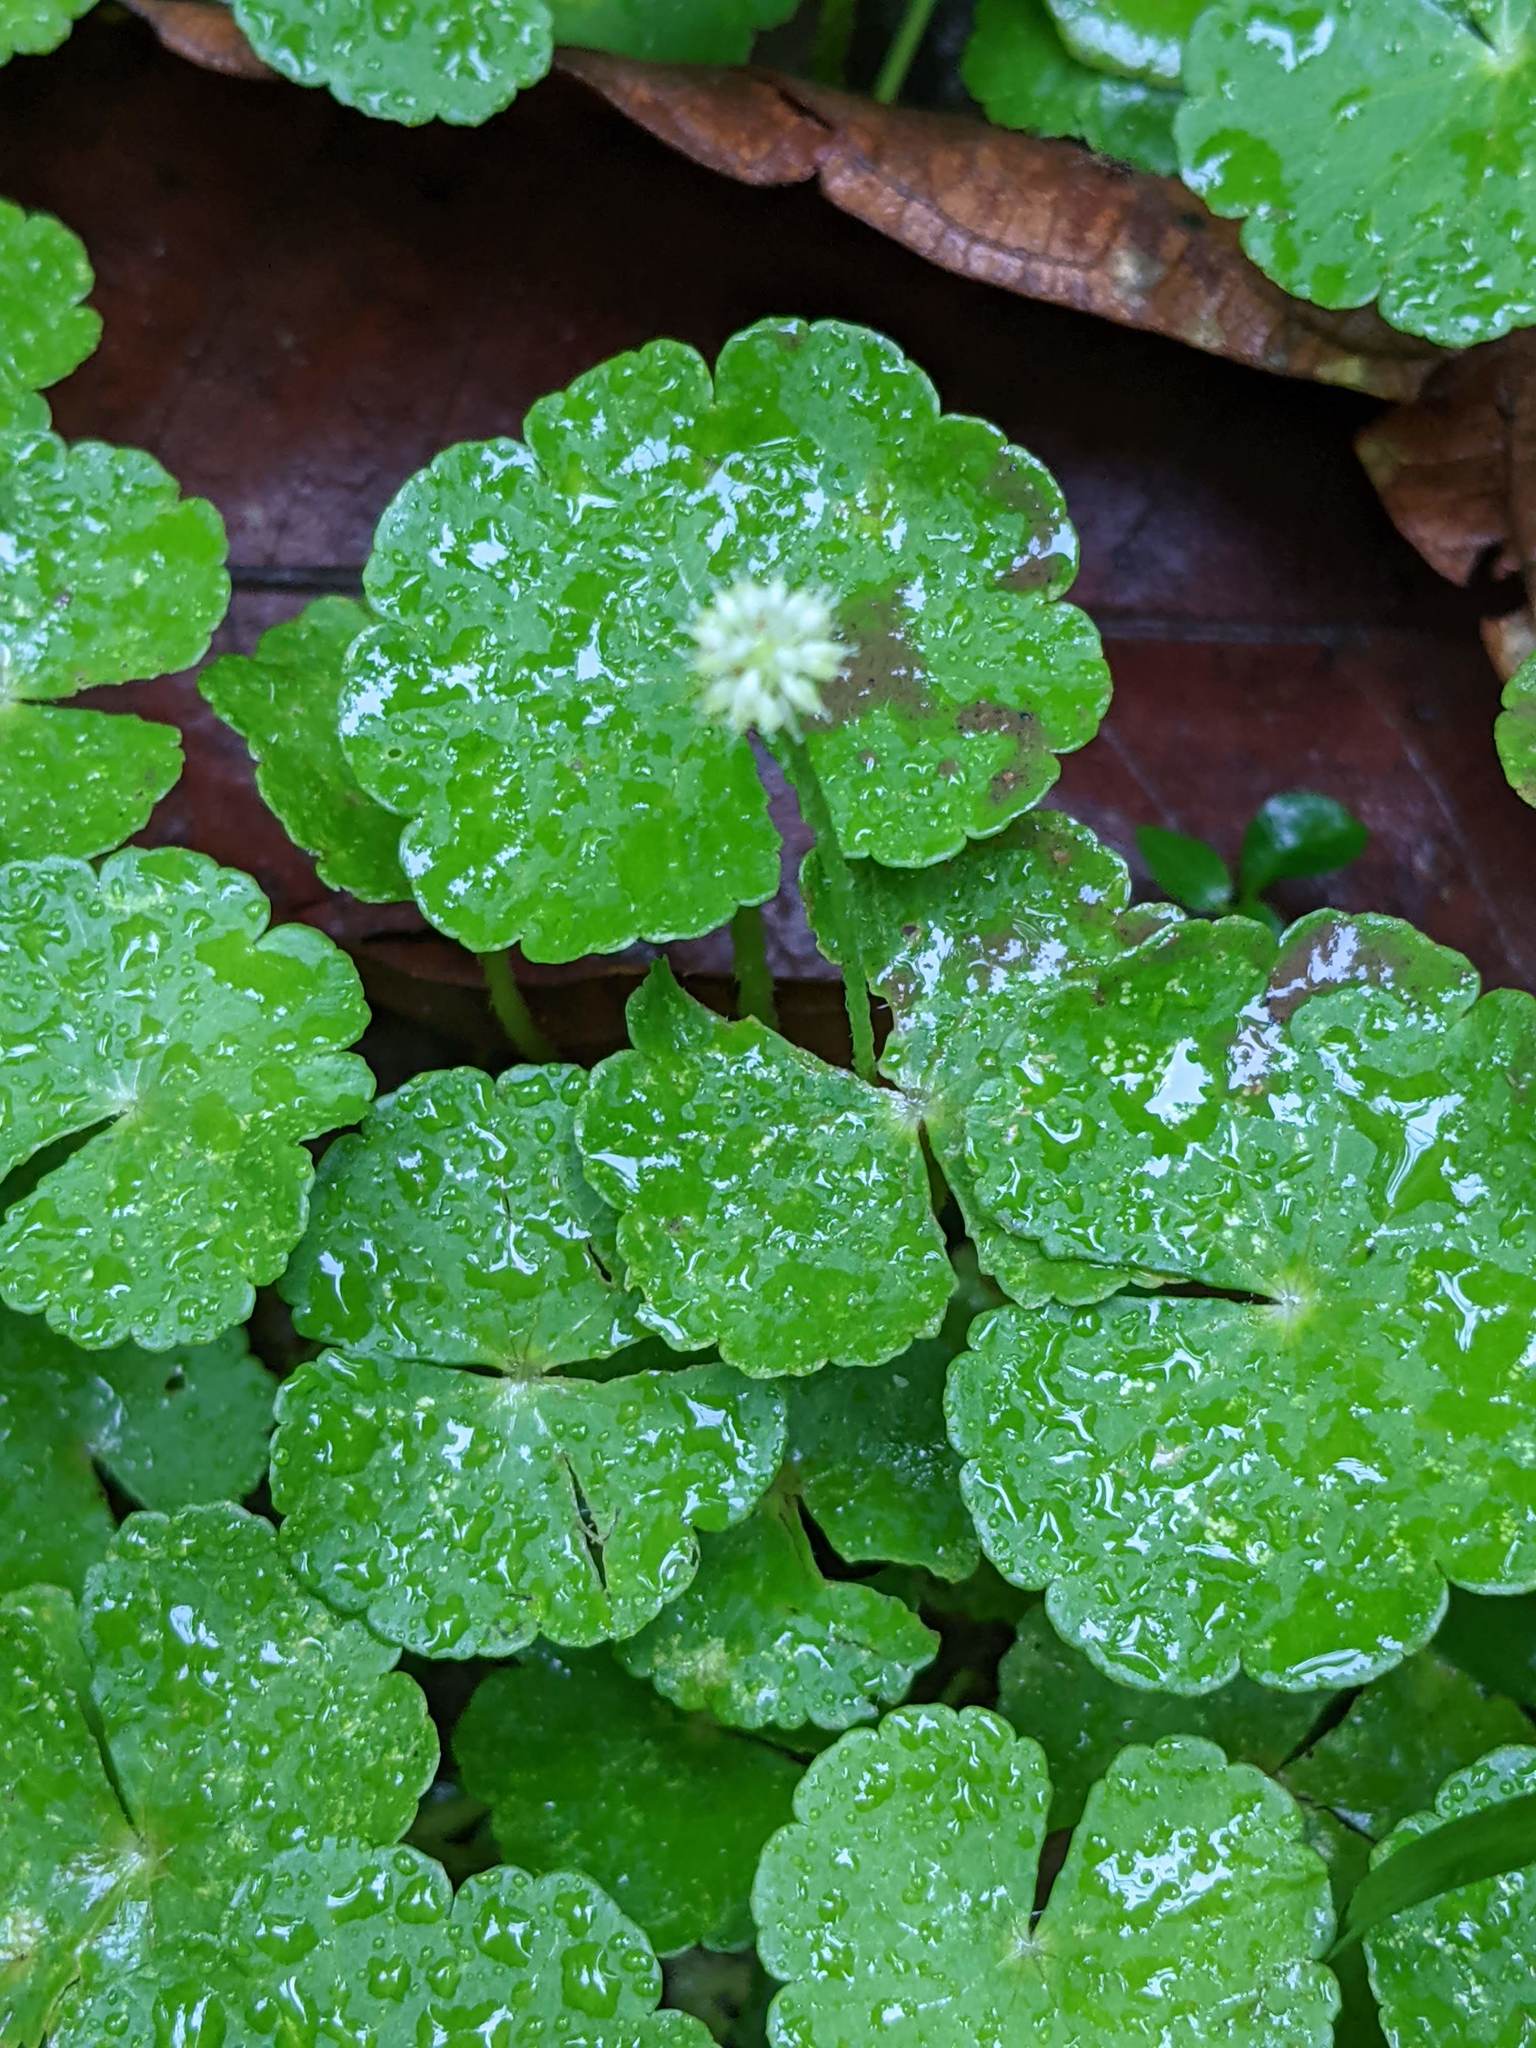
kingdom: Plantae
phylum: Tracheophyta
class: Magnoliopsida
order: Apiales
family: Araliaceae
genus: Hydrocotyle
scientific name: Hydrocotyle leucocephala
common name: Brazilian pennywort
